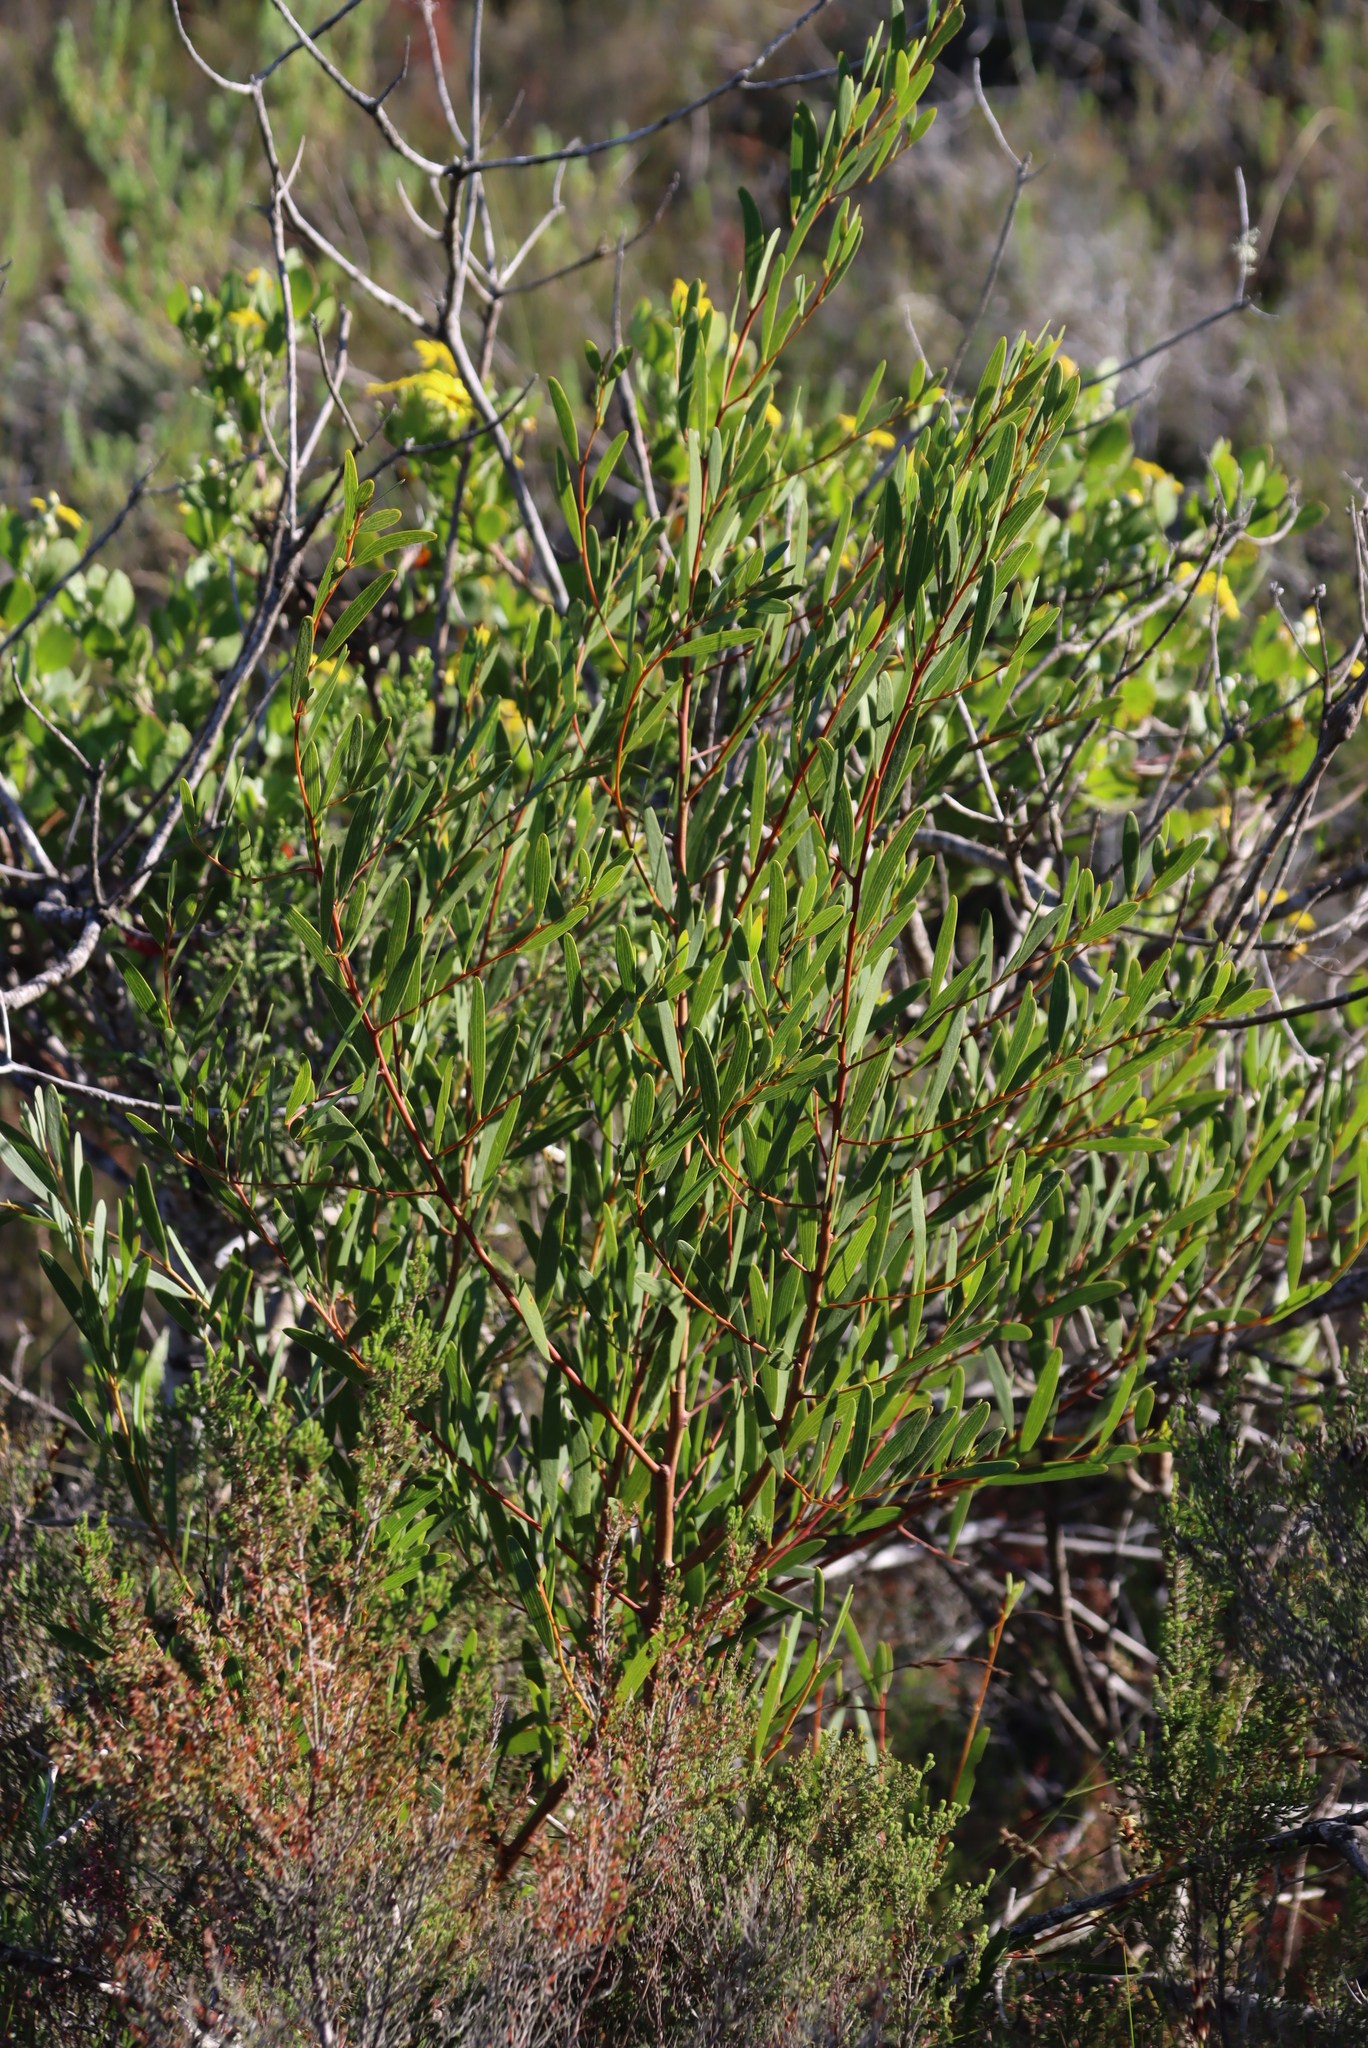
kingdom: Plantae
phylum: Tracheophyta
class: Magnoliopsida
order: Fabales
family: Fabaceae
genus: Acacia
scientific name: Acacia cyclops
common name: Coastal wattle
